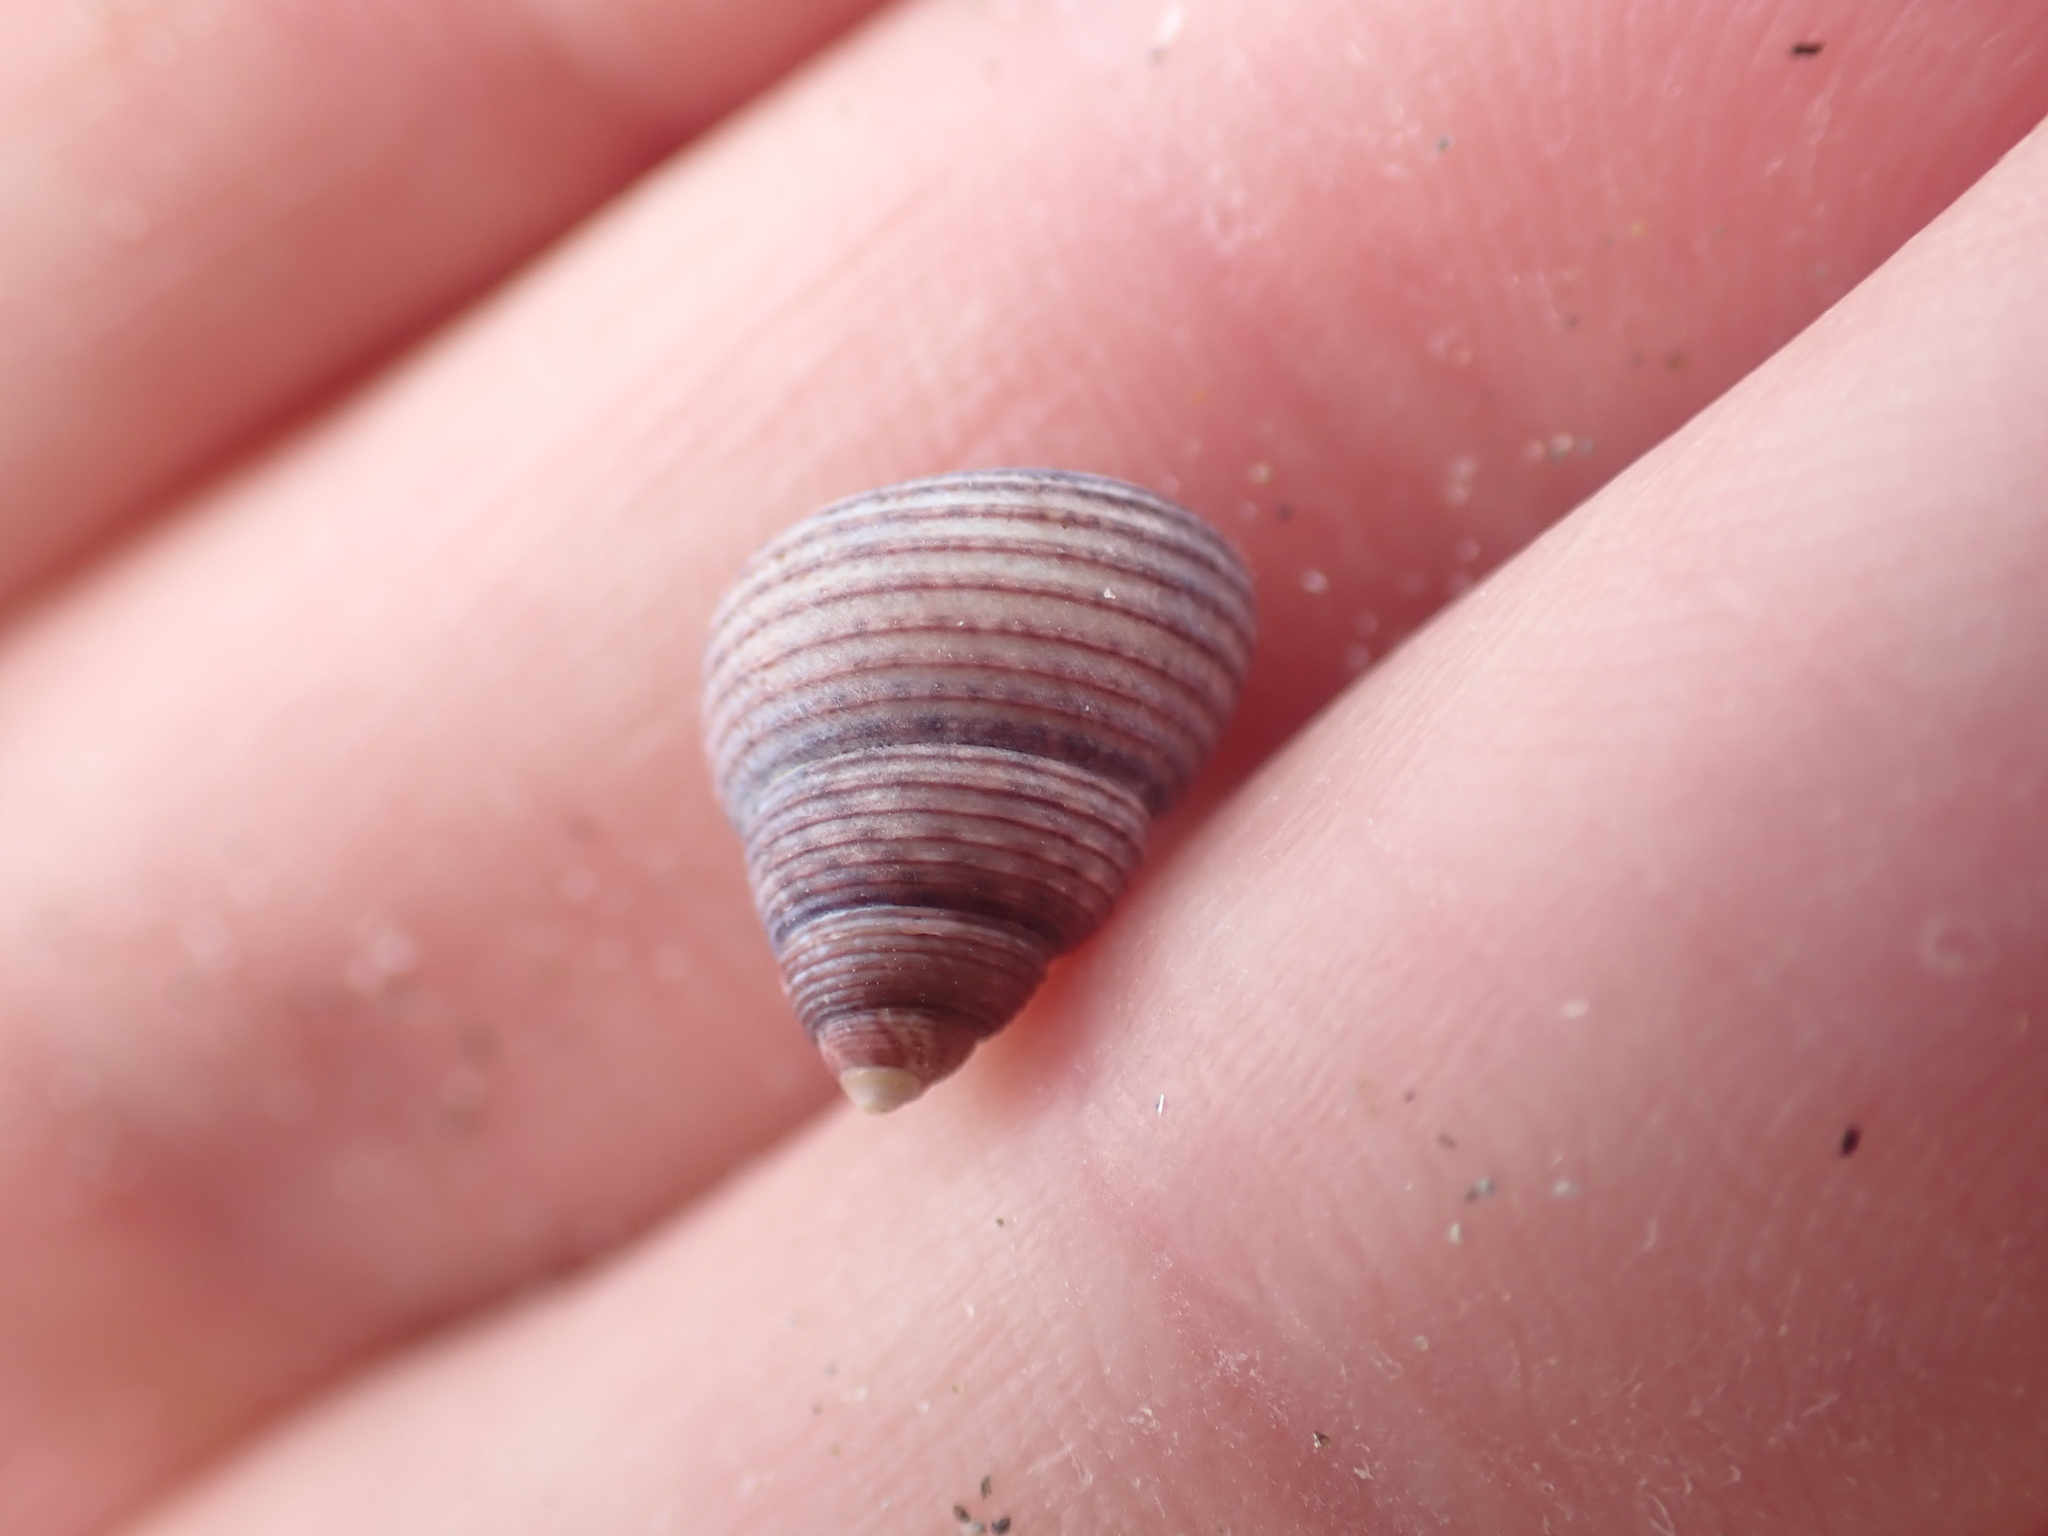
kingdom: Animalia
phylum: Mollusca
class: Gastropoda
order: Trochida
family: Trochidae
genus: Micrelenchus
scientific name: Micrelenchus huttonii
